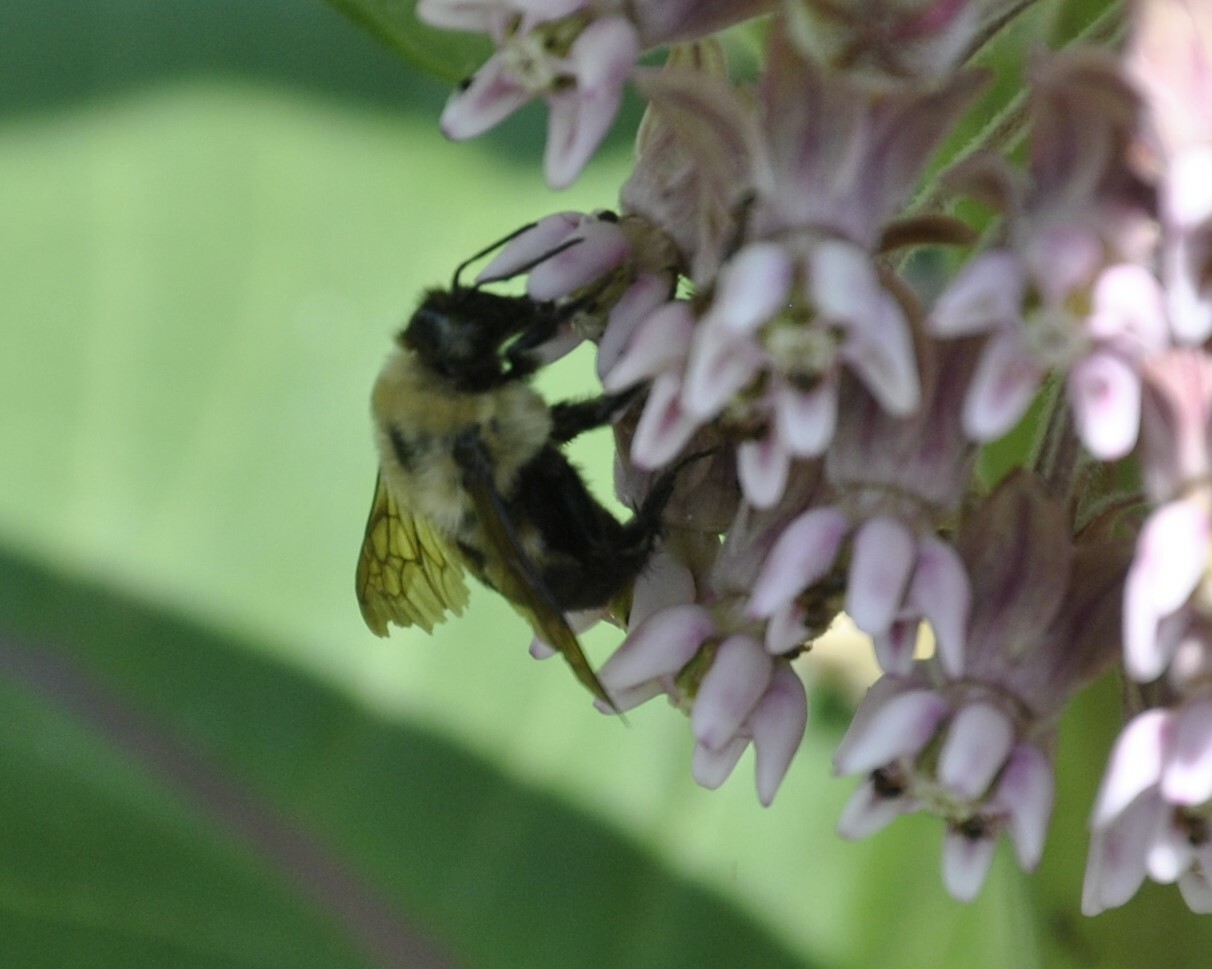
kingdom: Animalia
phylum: Arthropoda
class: Insecta
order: Hymenoptera
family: Apidae
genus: Bombus
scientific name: Bombus griseocollis
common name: Brown-belted bumble bee
